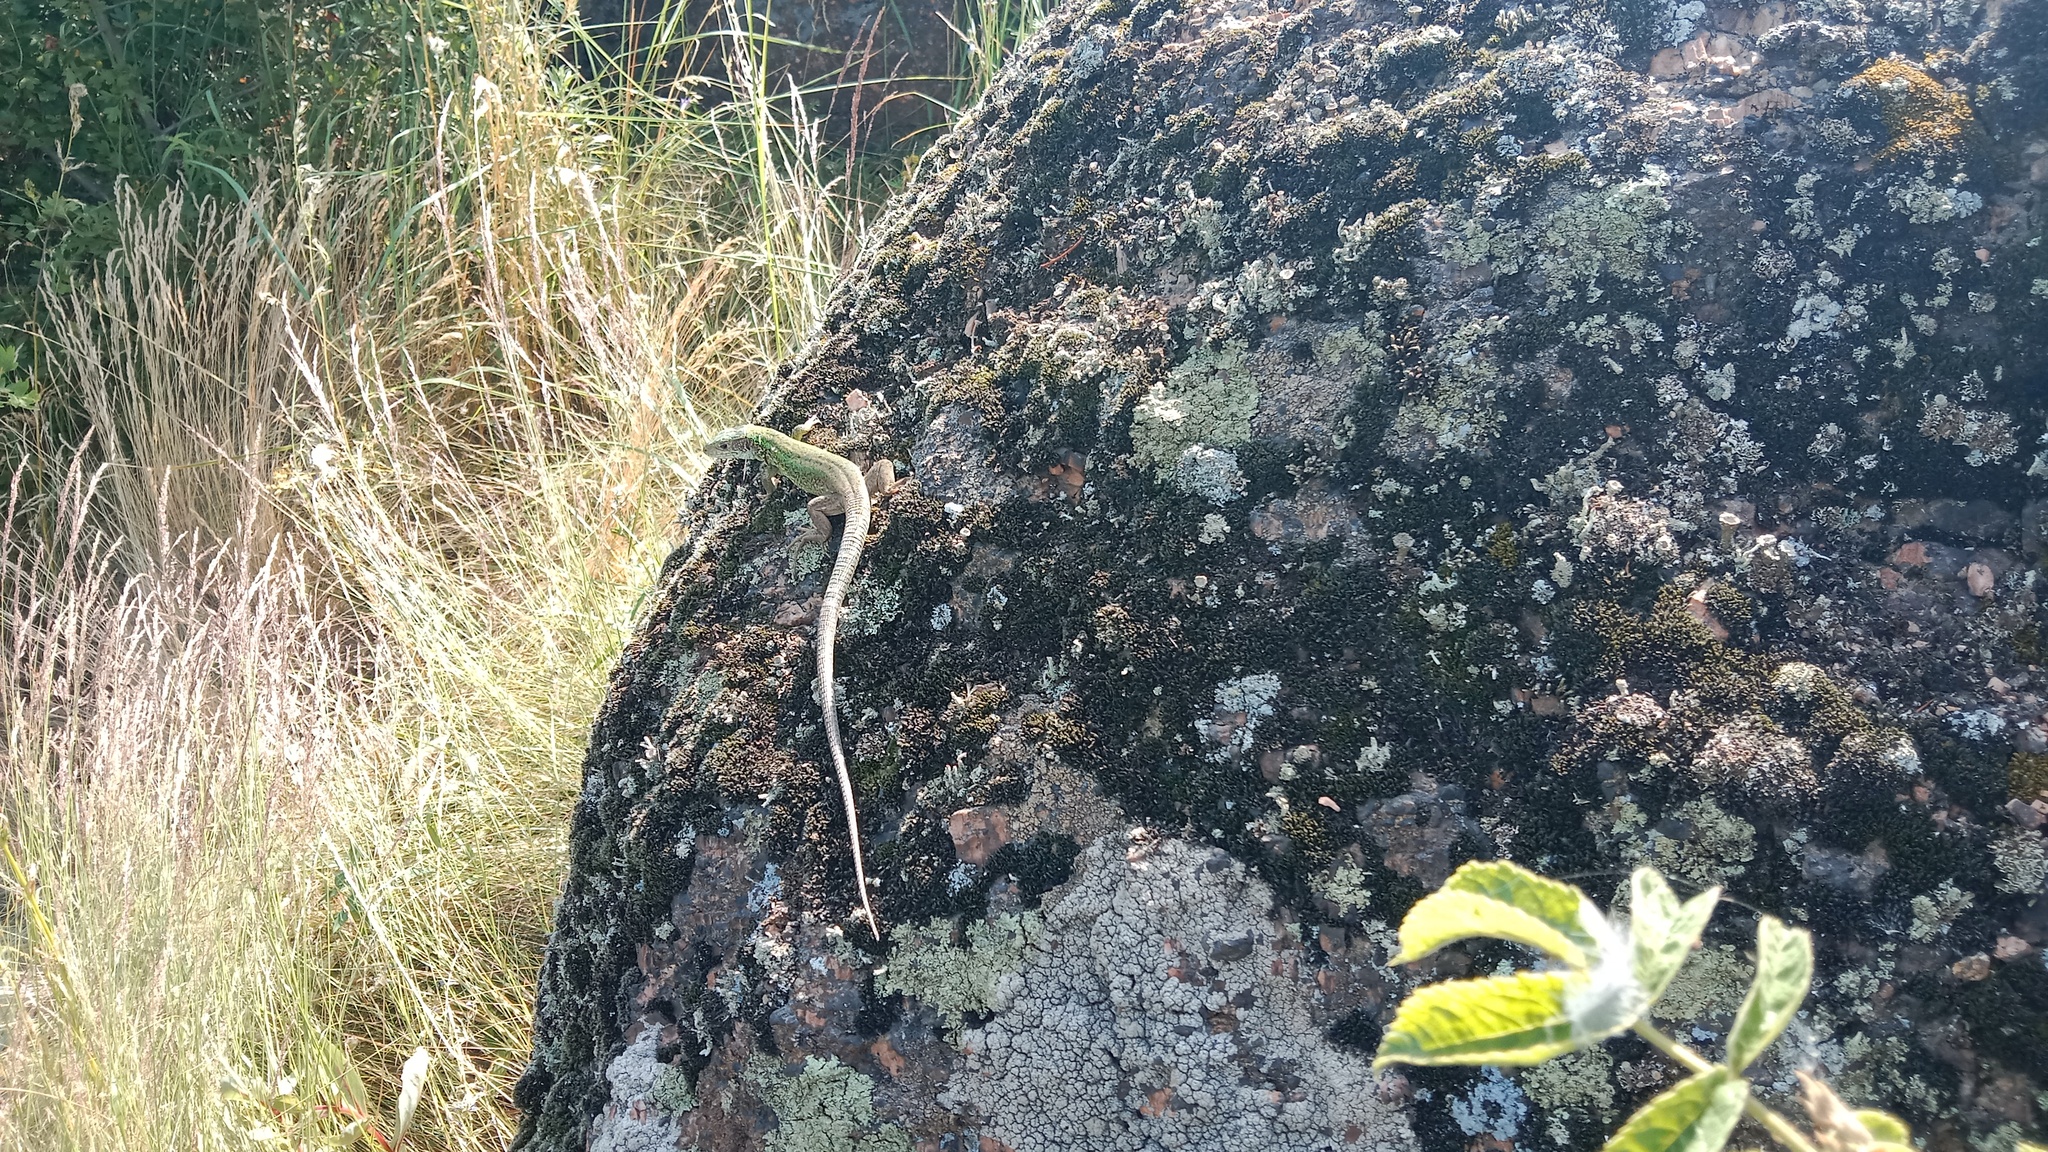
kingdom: Animalia
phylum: Chordata
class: Squamata
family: Lacertidae
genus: Lacerta
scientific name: Lacerta viridis
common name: European green lizard
